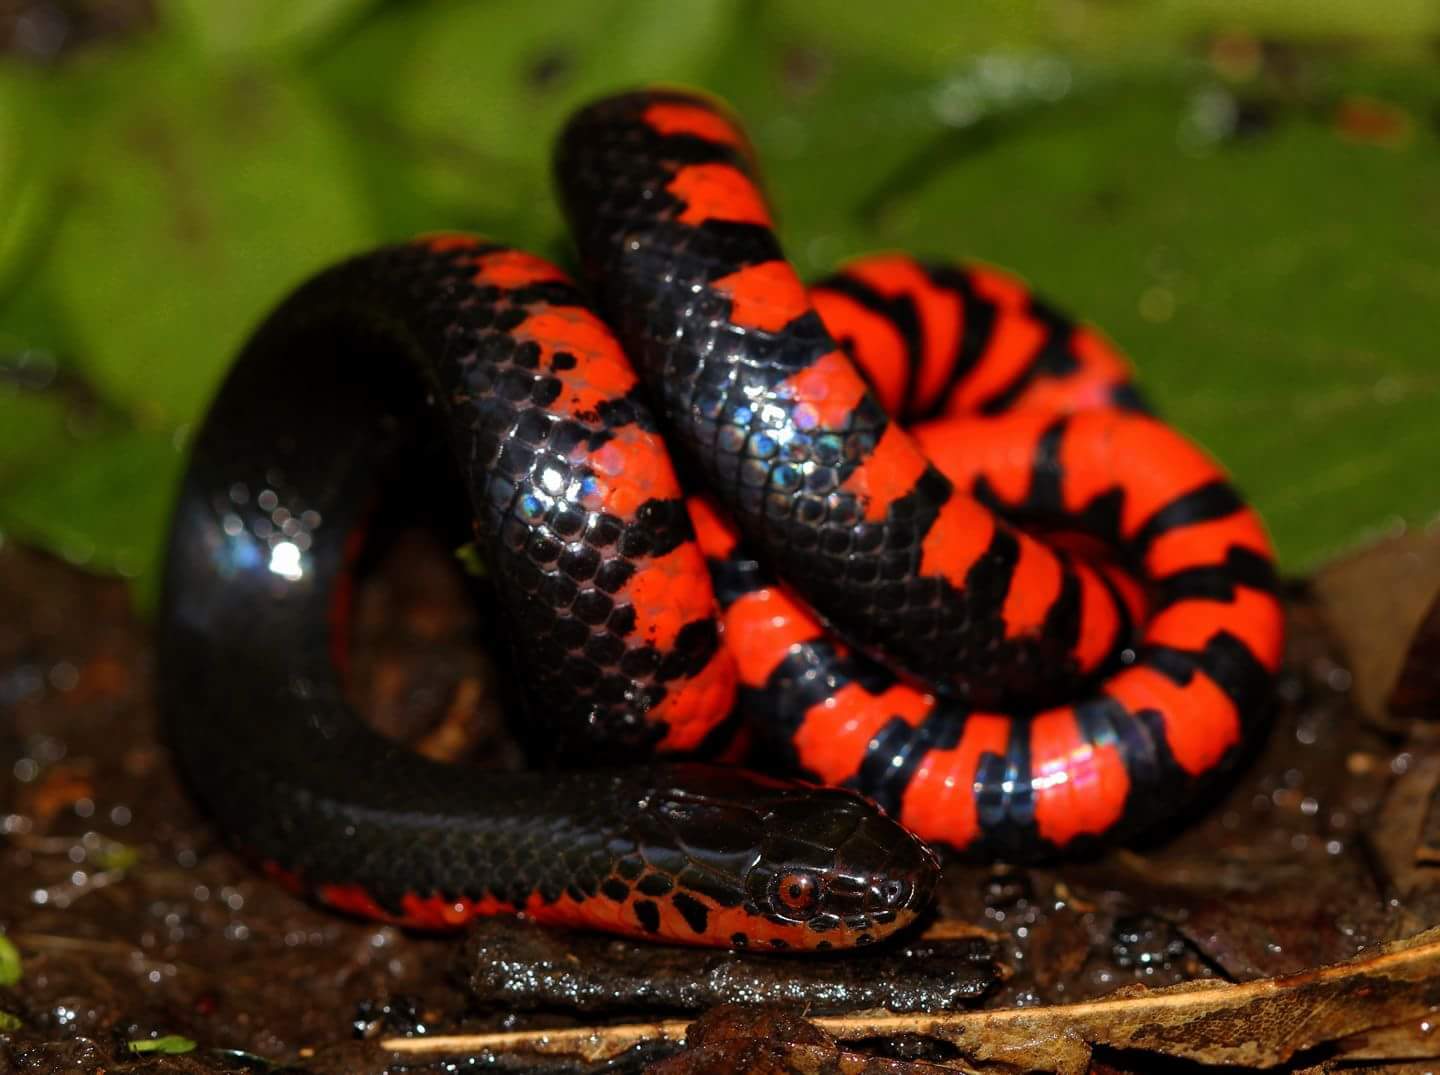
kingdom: Animalia
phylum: Chordata
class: Squamata
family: Colubridae
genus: Farancia
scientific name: Farancia abacura
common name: Mud snake
